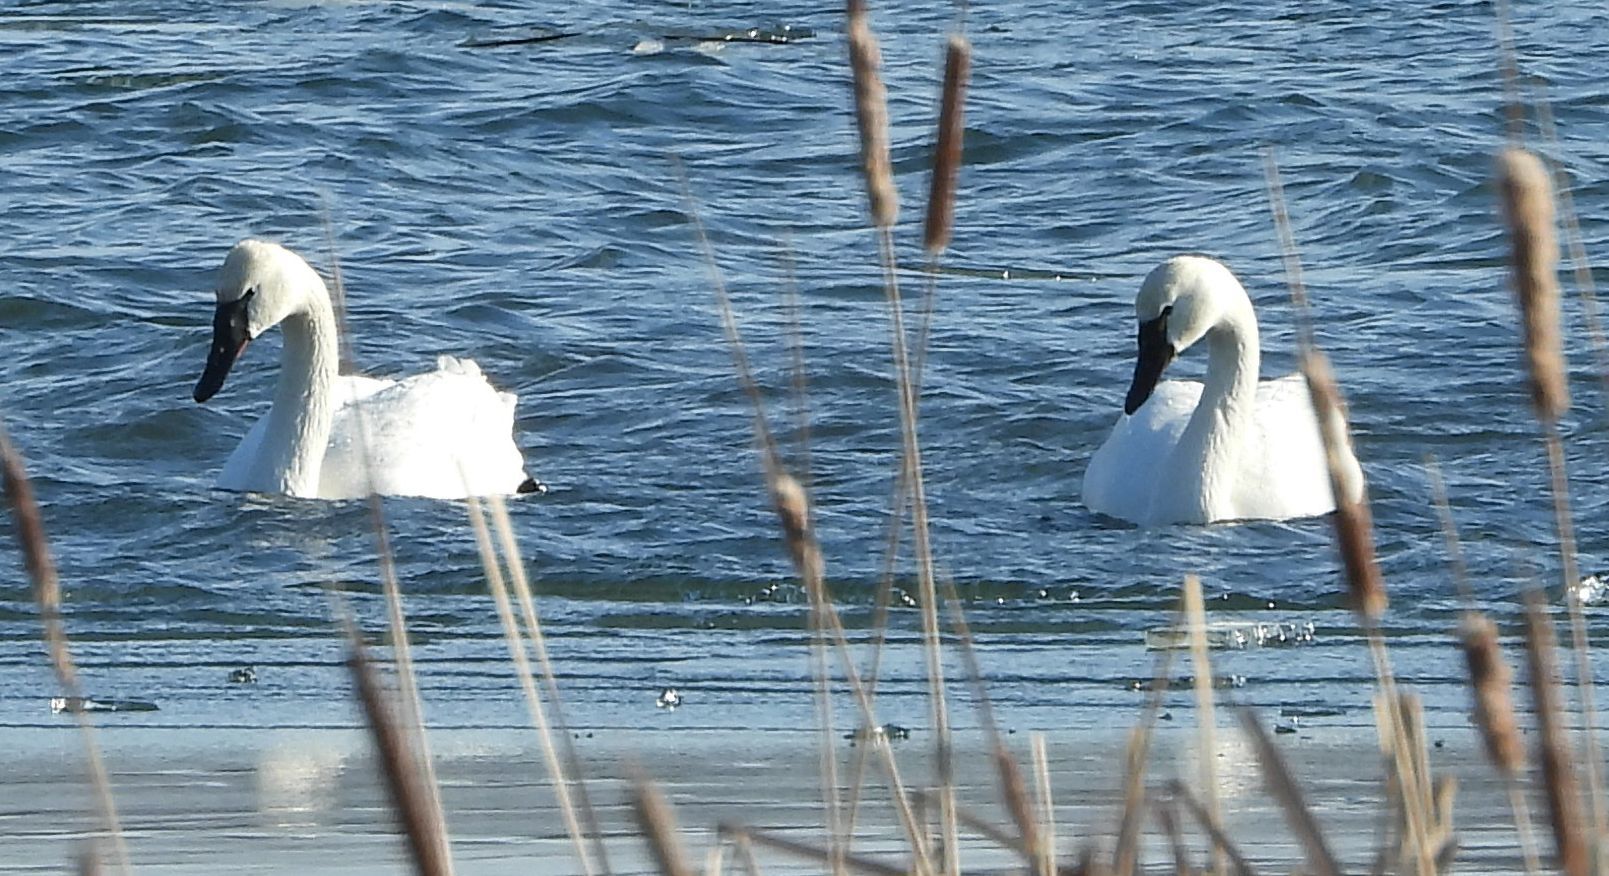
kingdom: Animalia
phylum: Chordata
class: Aves
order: Anseriformes
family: Anatidae
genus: Cygnus
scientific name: Cygnus columbianus
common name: Tundra swan
